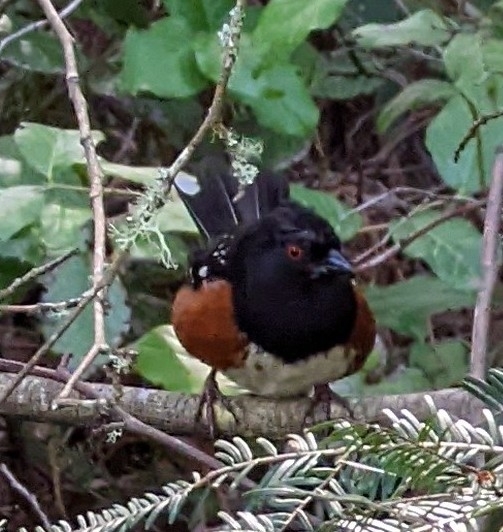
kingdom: Animalia
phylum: Chordata
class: Aves
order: Passeriformes
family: Passerellidae
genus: Pipilo
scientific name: Pipilo maculatus
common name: Spotted towhee
